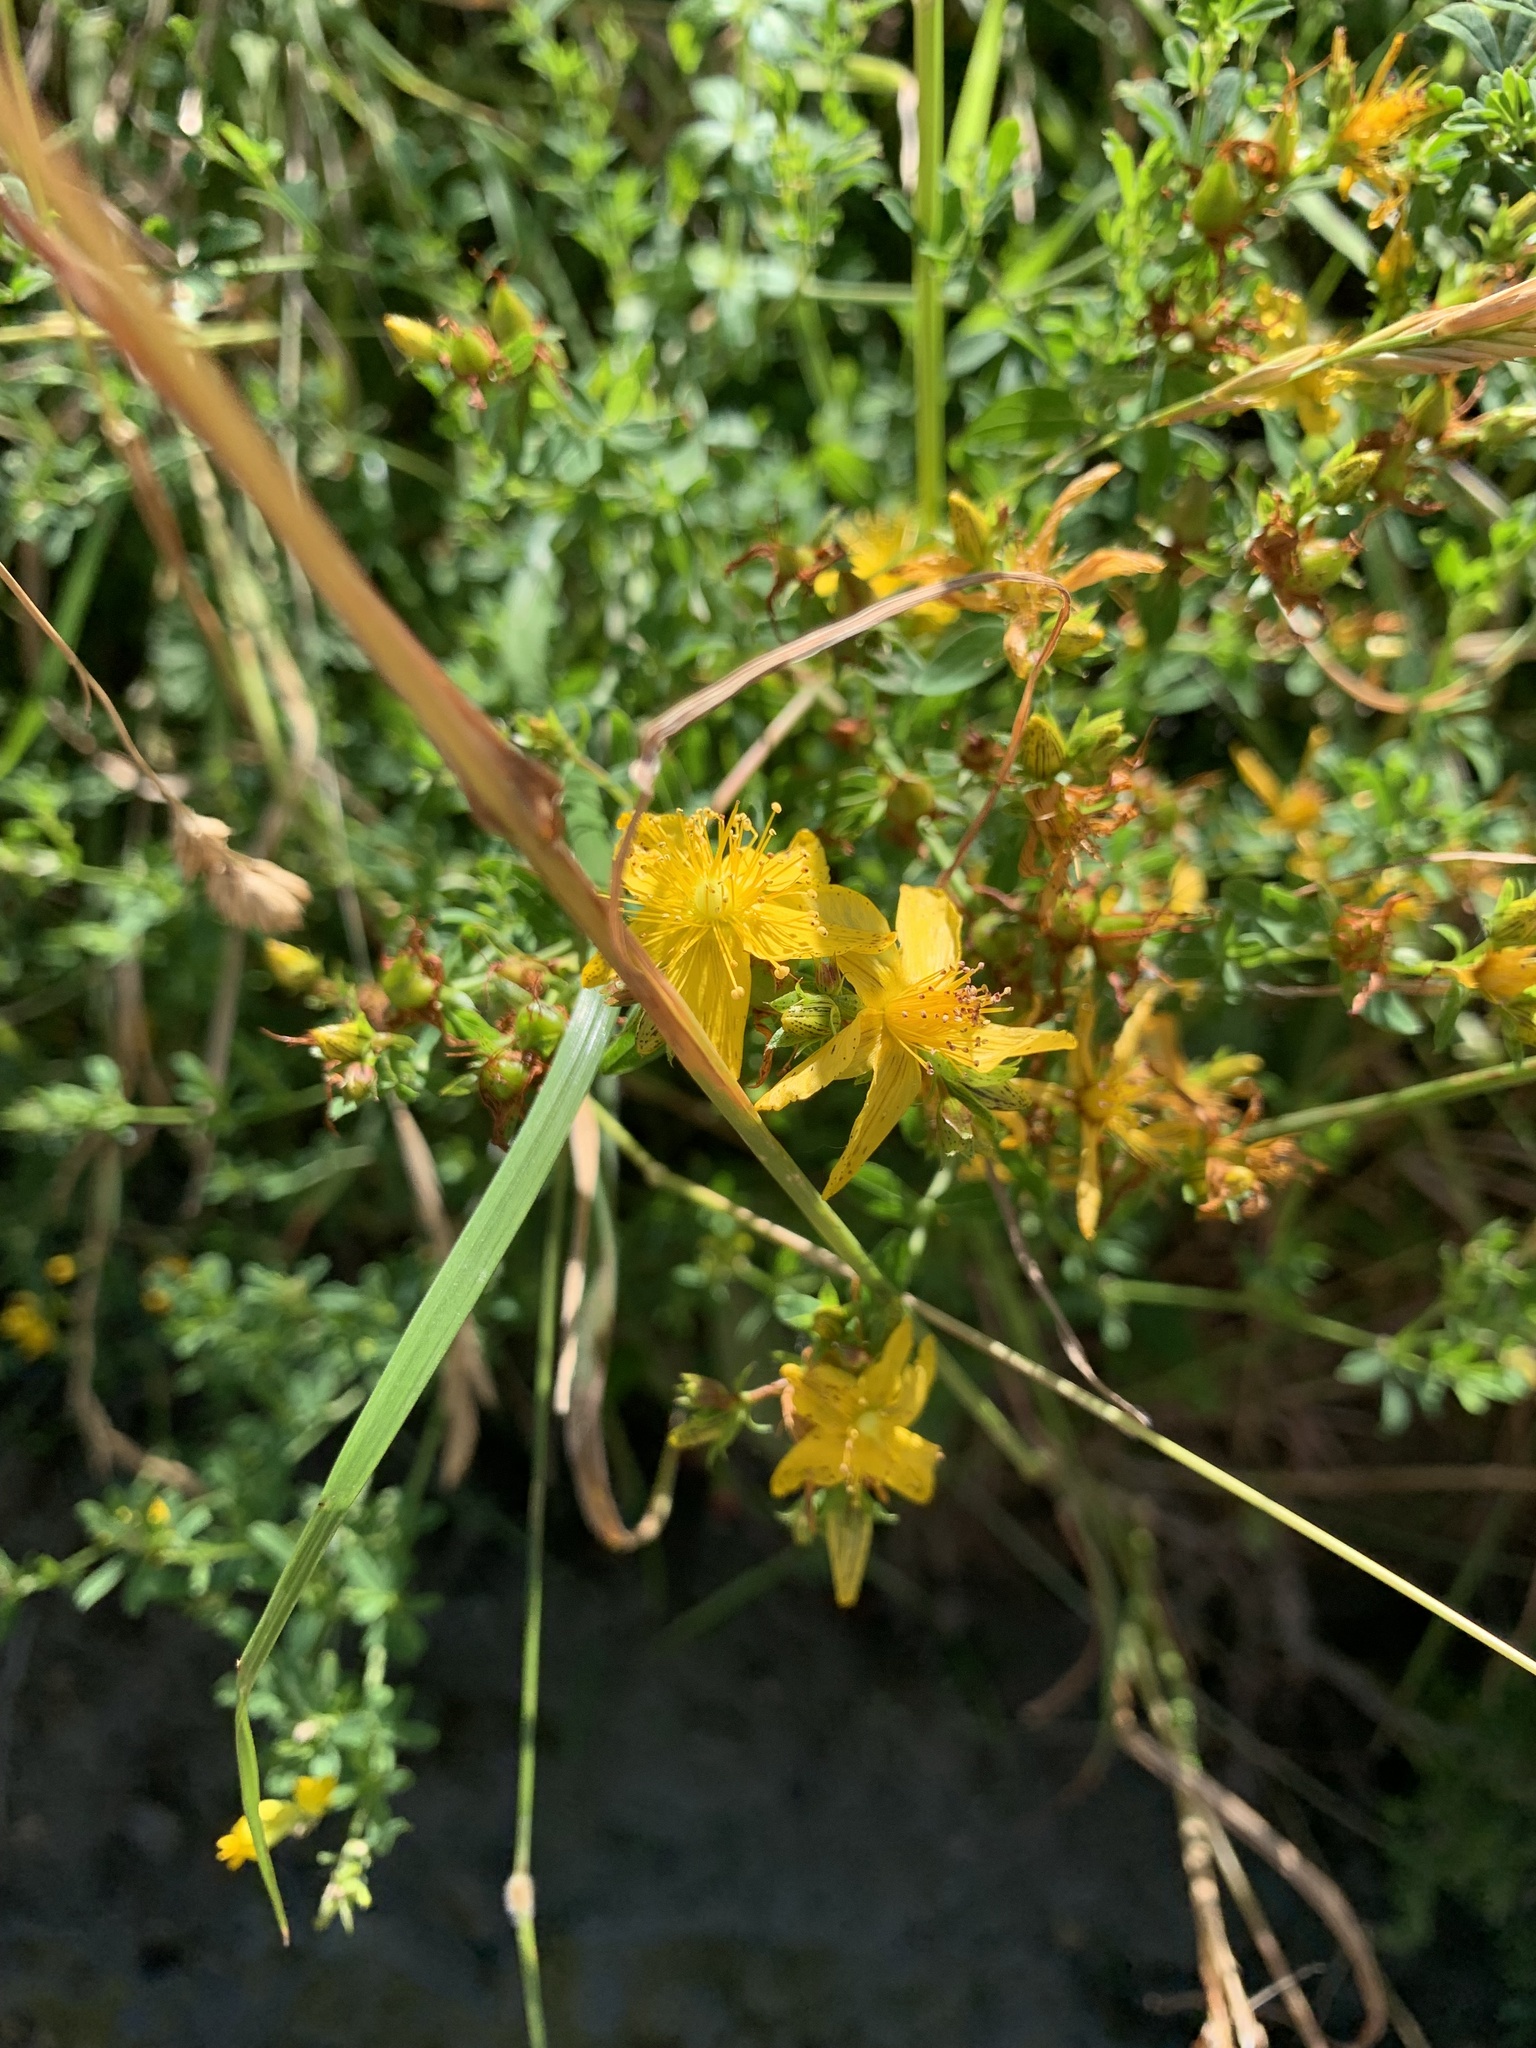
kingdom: Plantae
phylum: Tracheophyta
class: Magnoliopsida
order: Malpighiales
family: Hypericaceae
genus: Hypericum
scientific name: Hypericum perforatum
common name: Common st. johnswort
